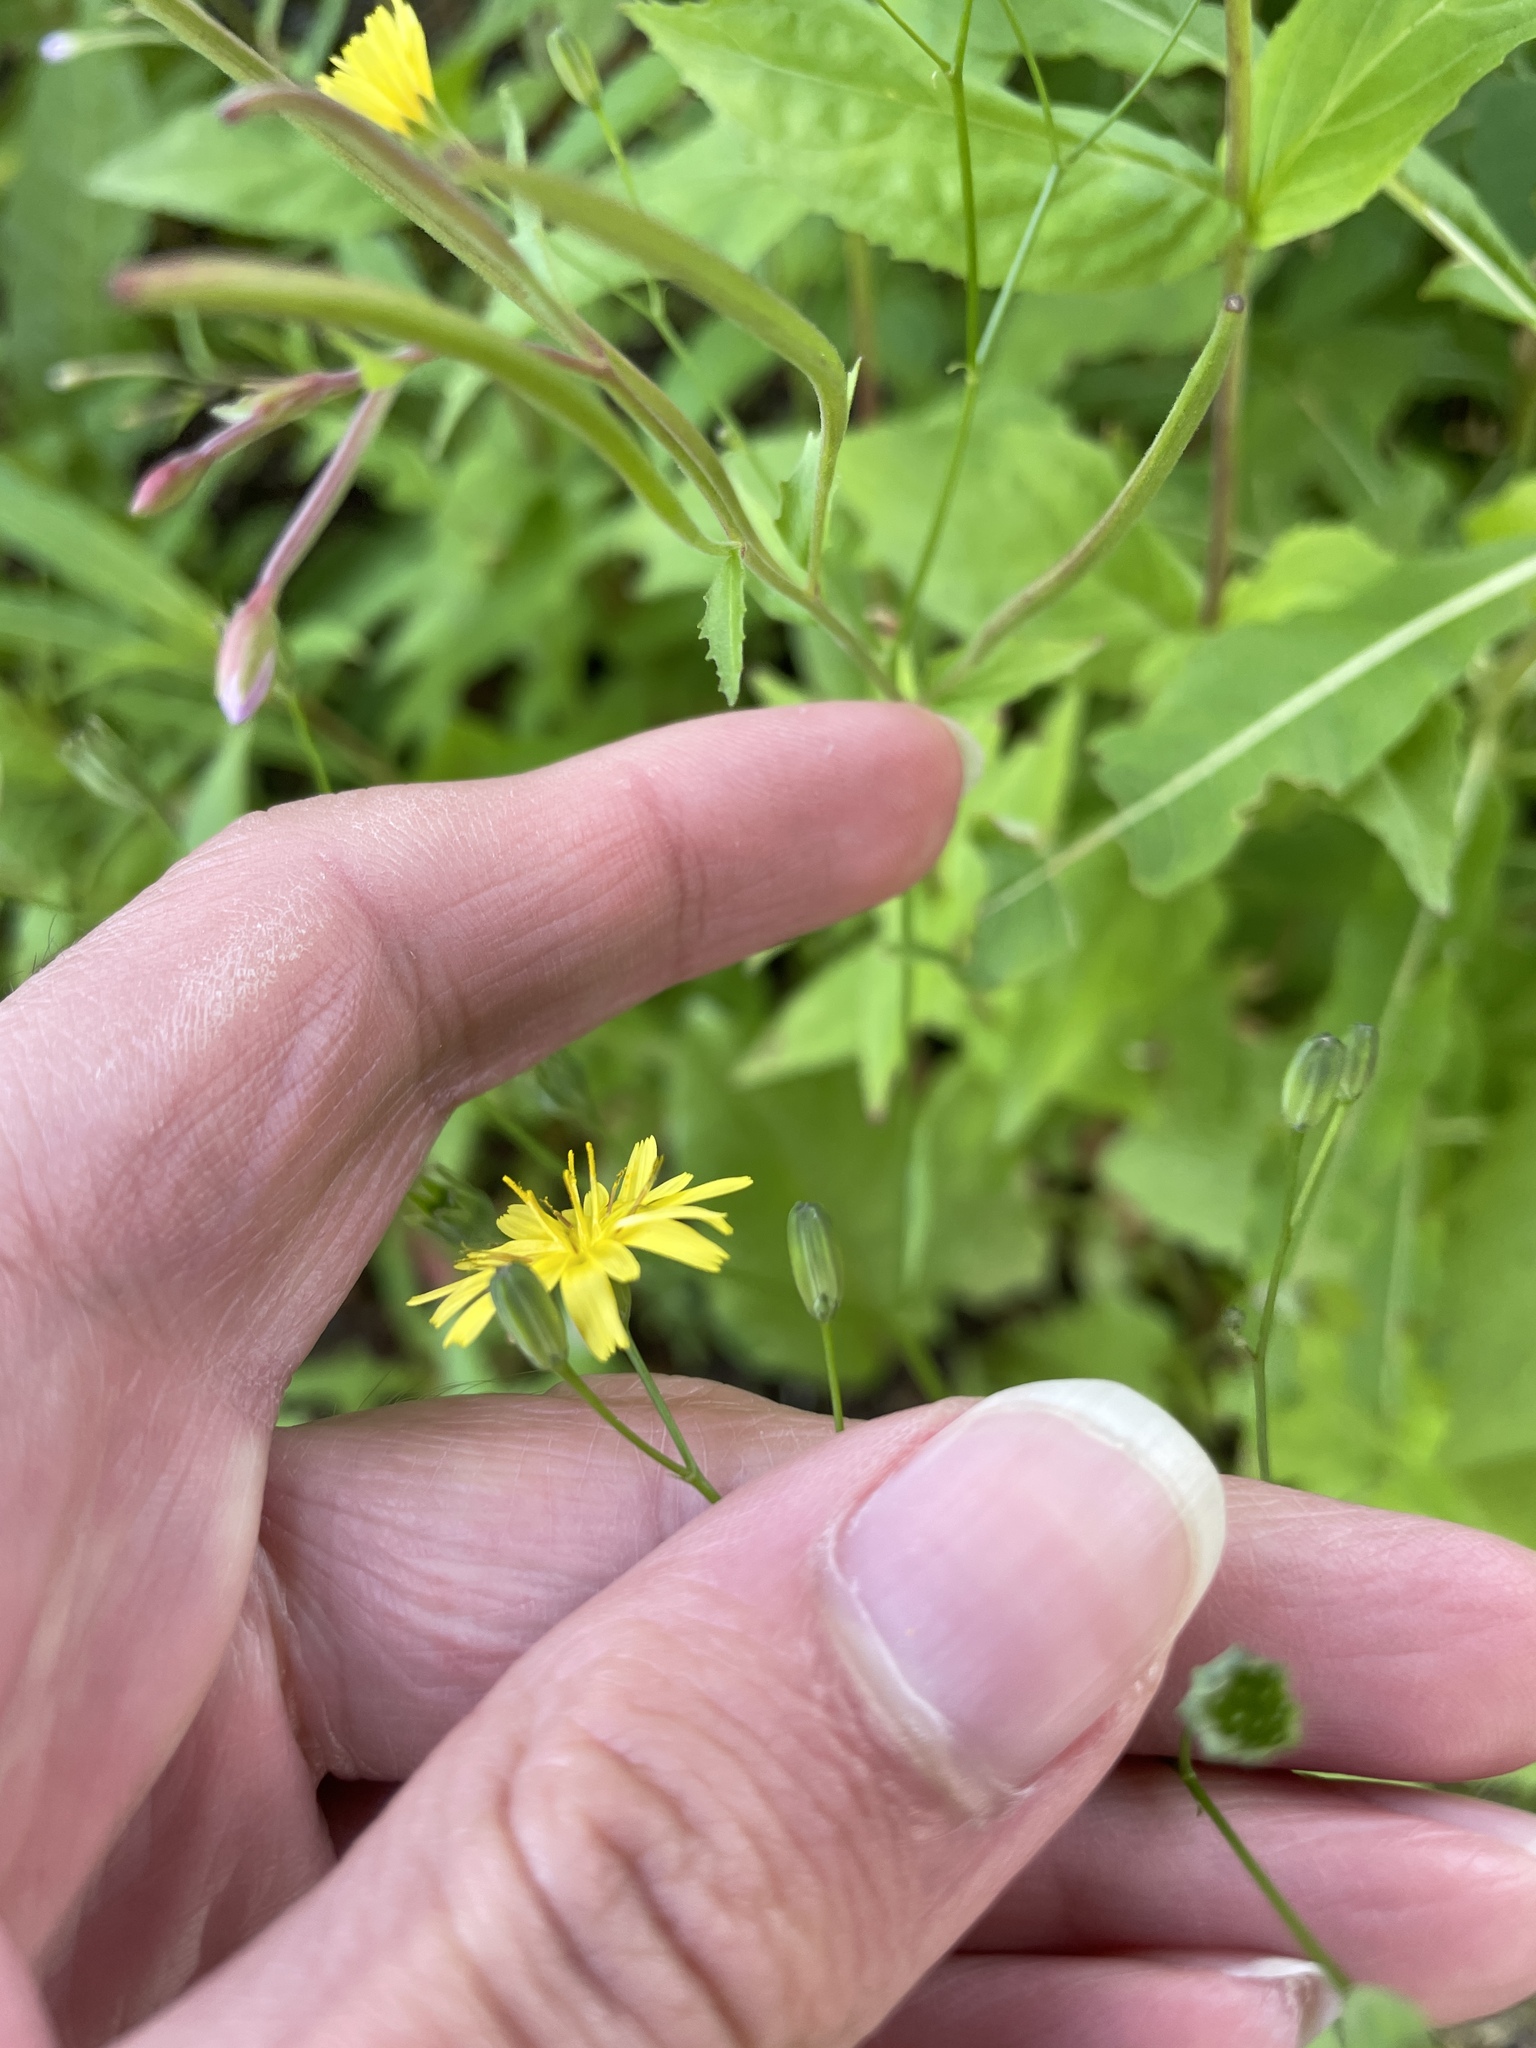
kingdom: Plantae
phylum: Tracheophyta
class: Magnoliopsida
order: Asterales
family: Asteraceae
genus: Lapsana
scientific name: Lapsana communis
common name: Nipplewort
